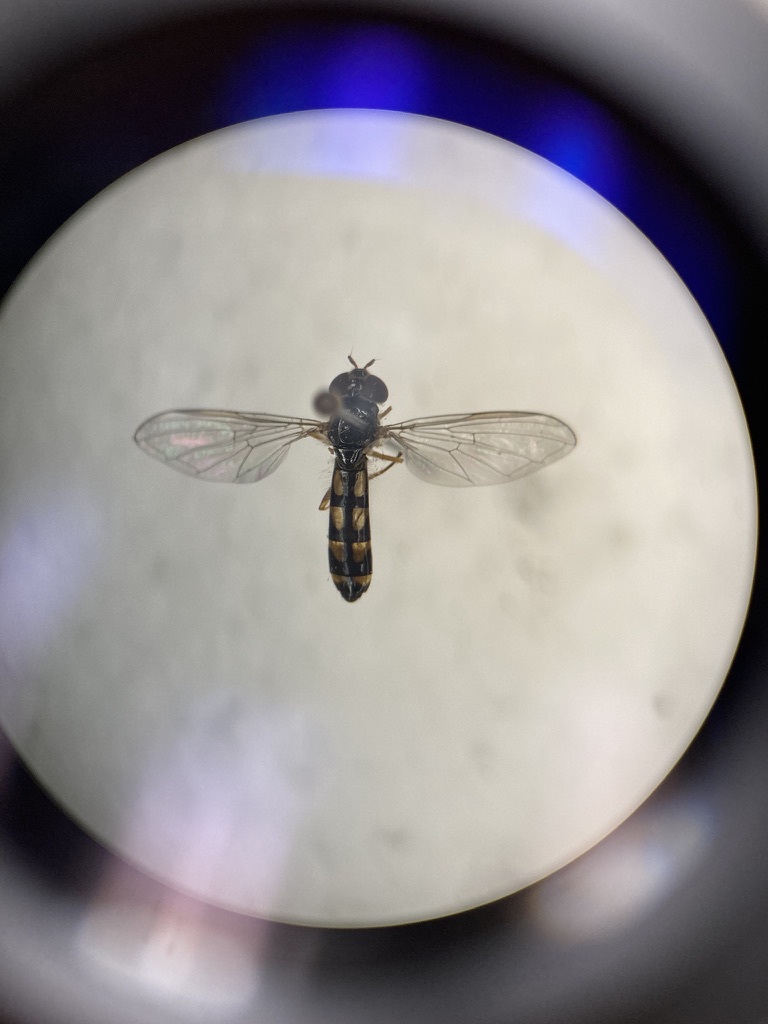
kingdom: Animalia
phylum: Arthropoda
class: Insecta
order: Diptera
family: Syrphidae
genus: Melanostoma
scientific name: Melanostoma mellina
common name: Hover fly
